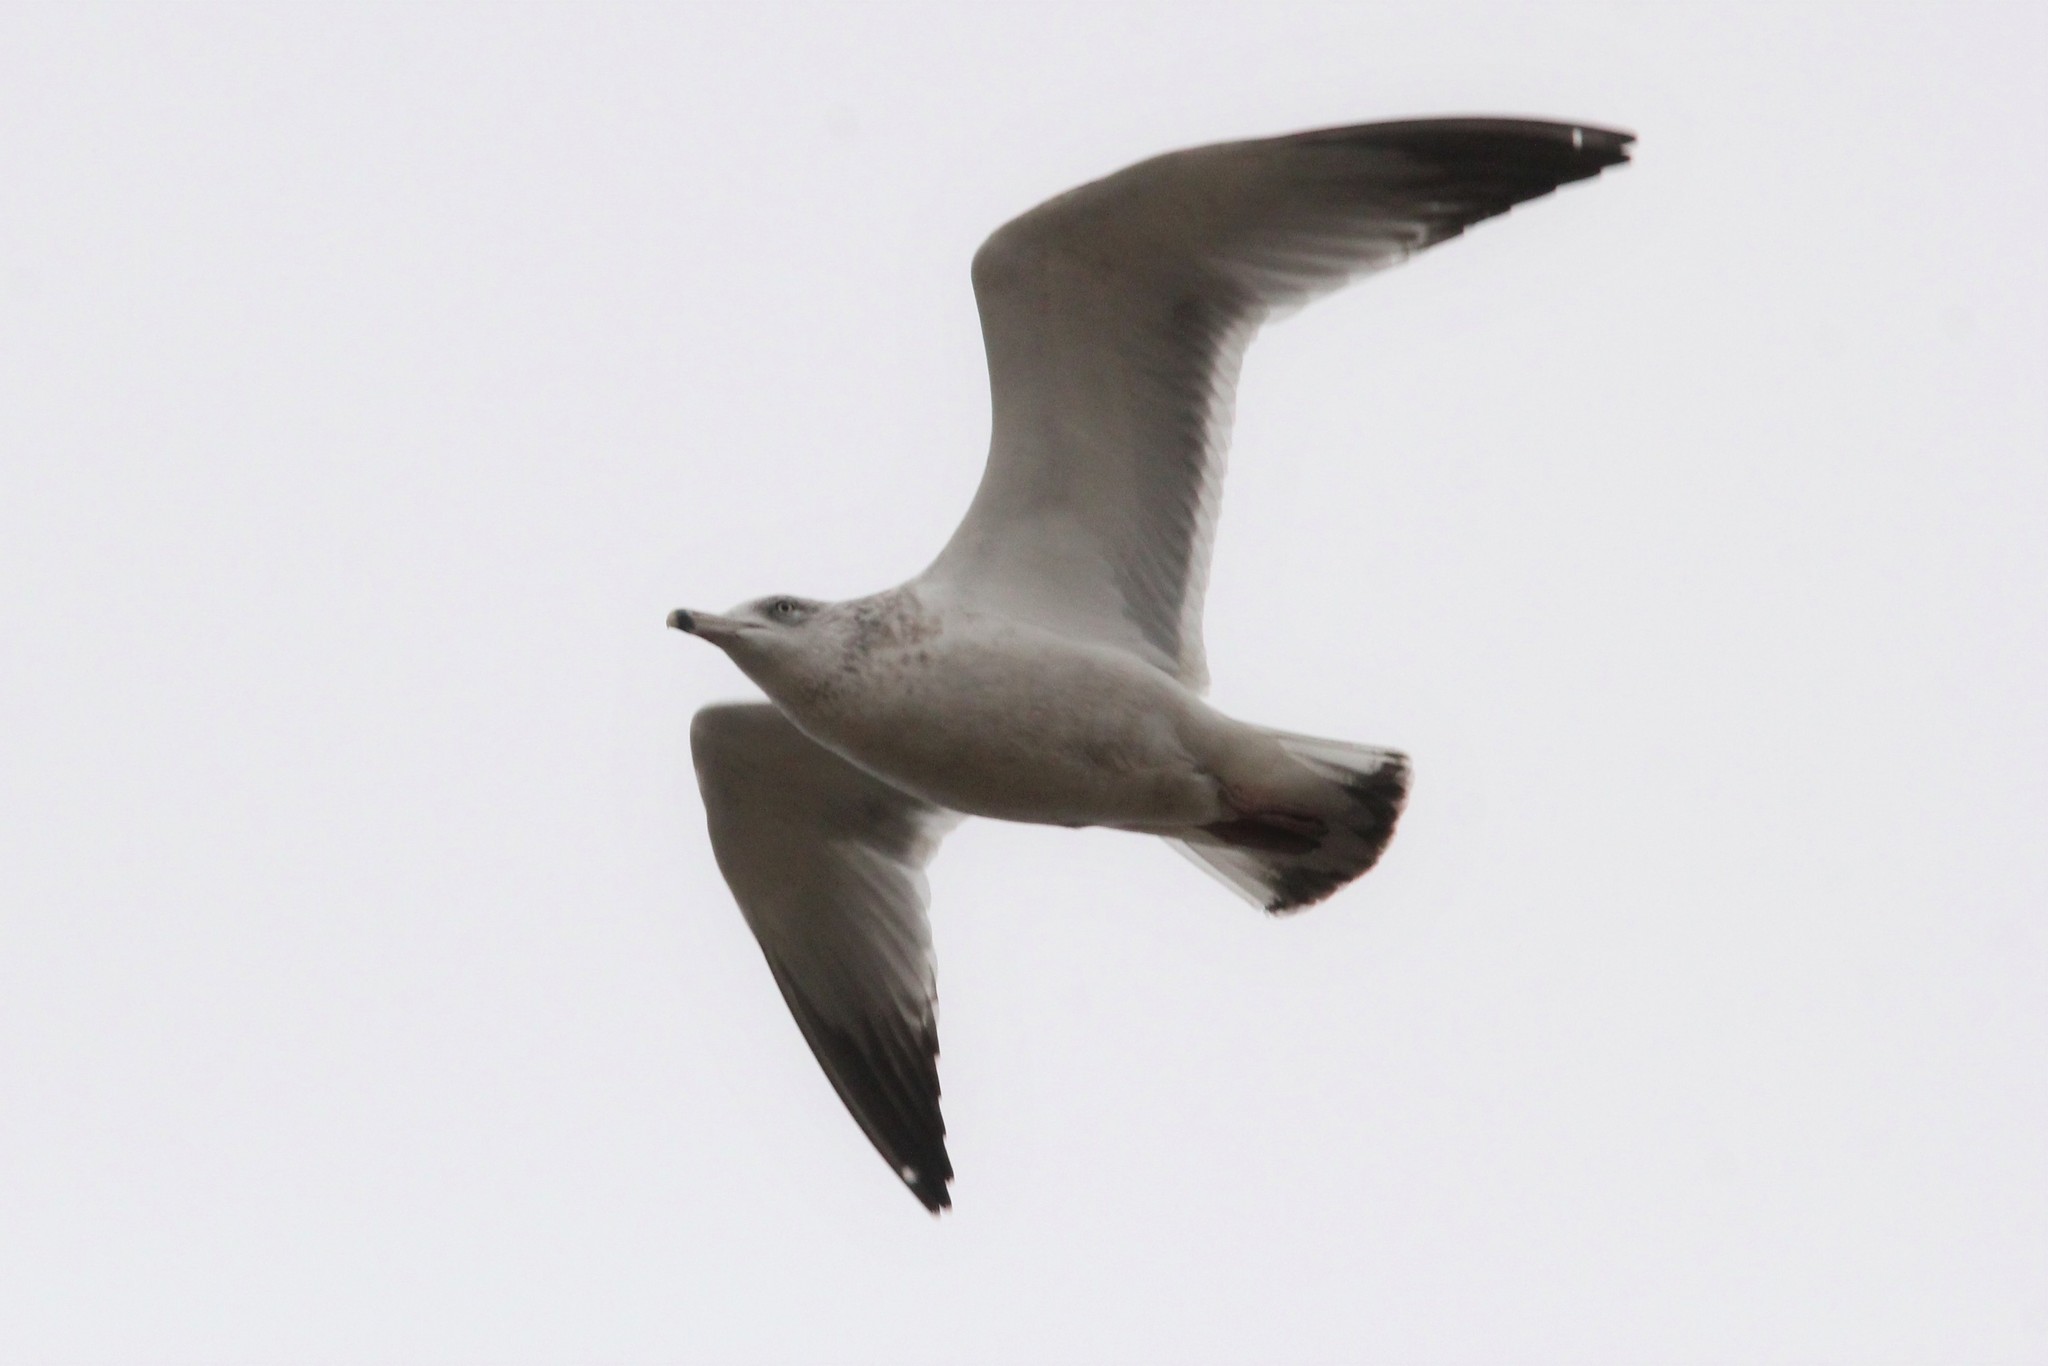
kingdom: Animalia
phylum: Chordata
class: Aves
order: Charadriiformes
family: Laridae
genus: Larus
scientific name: Larus argentatus
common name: Herring gull
